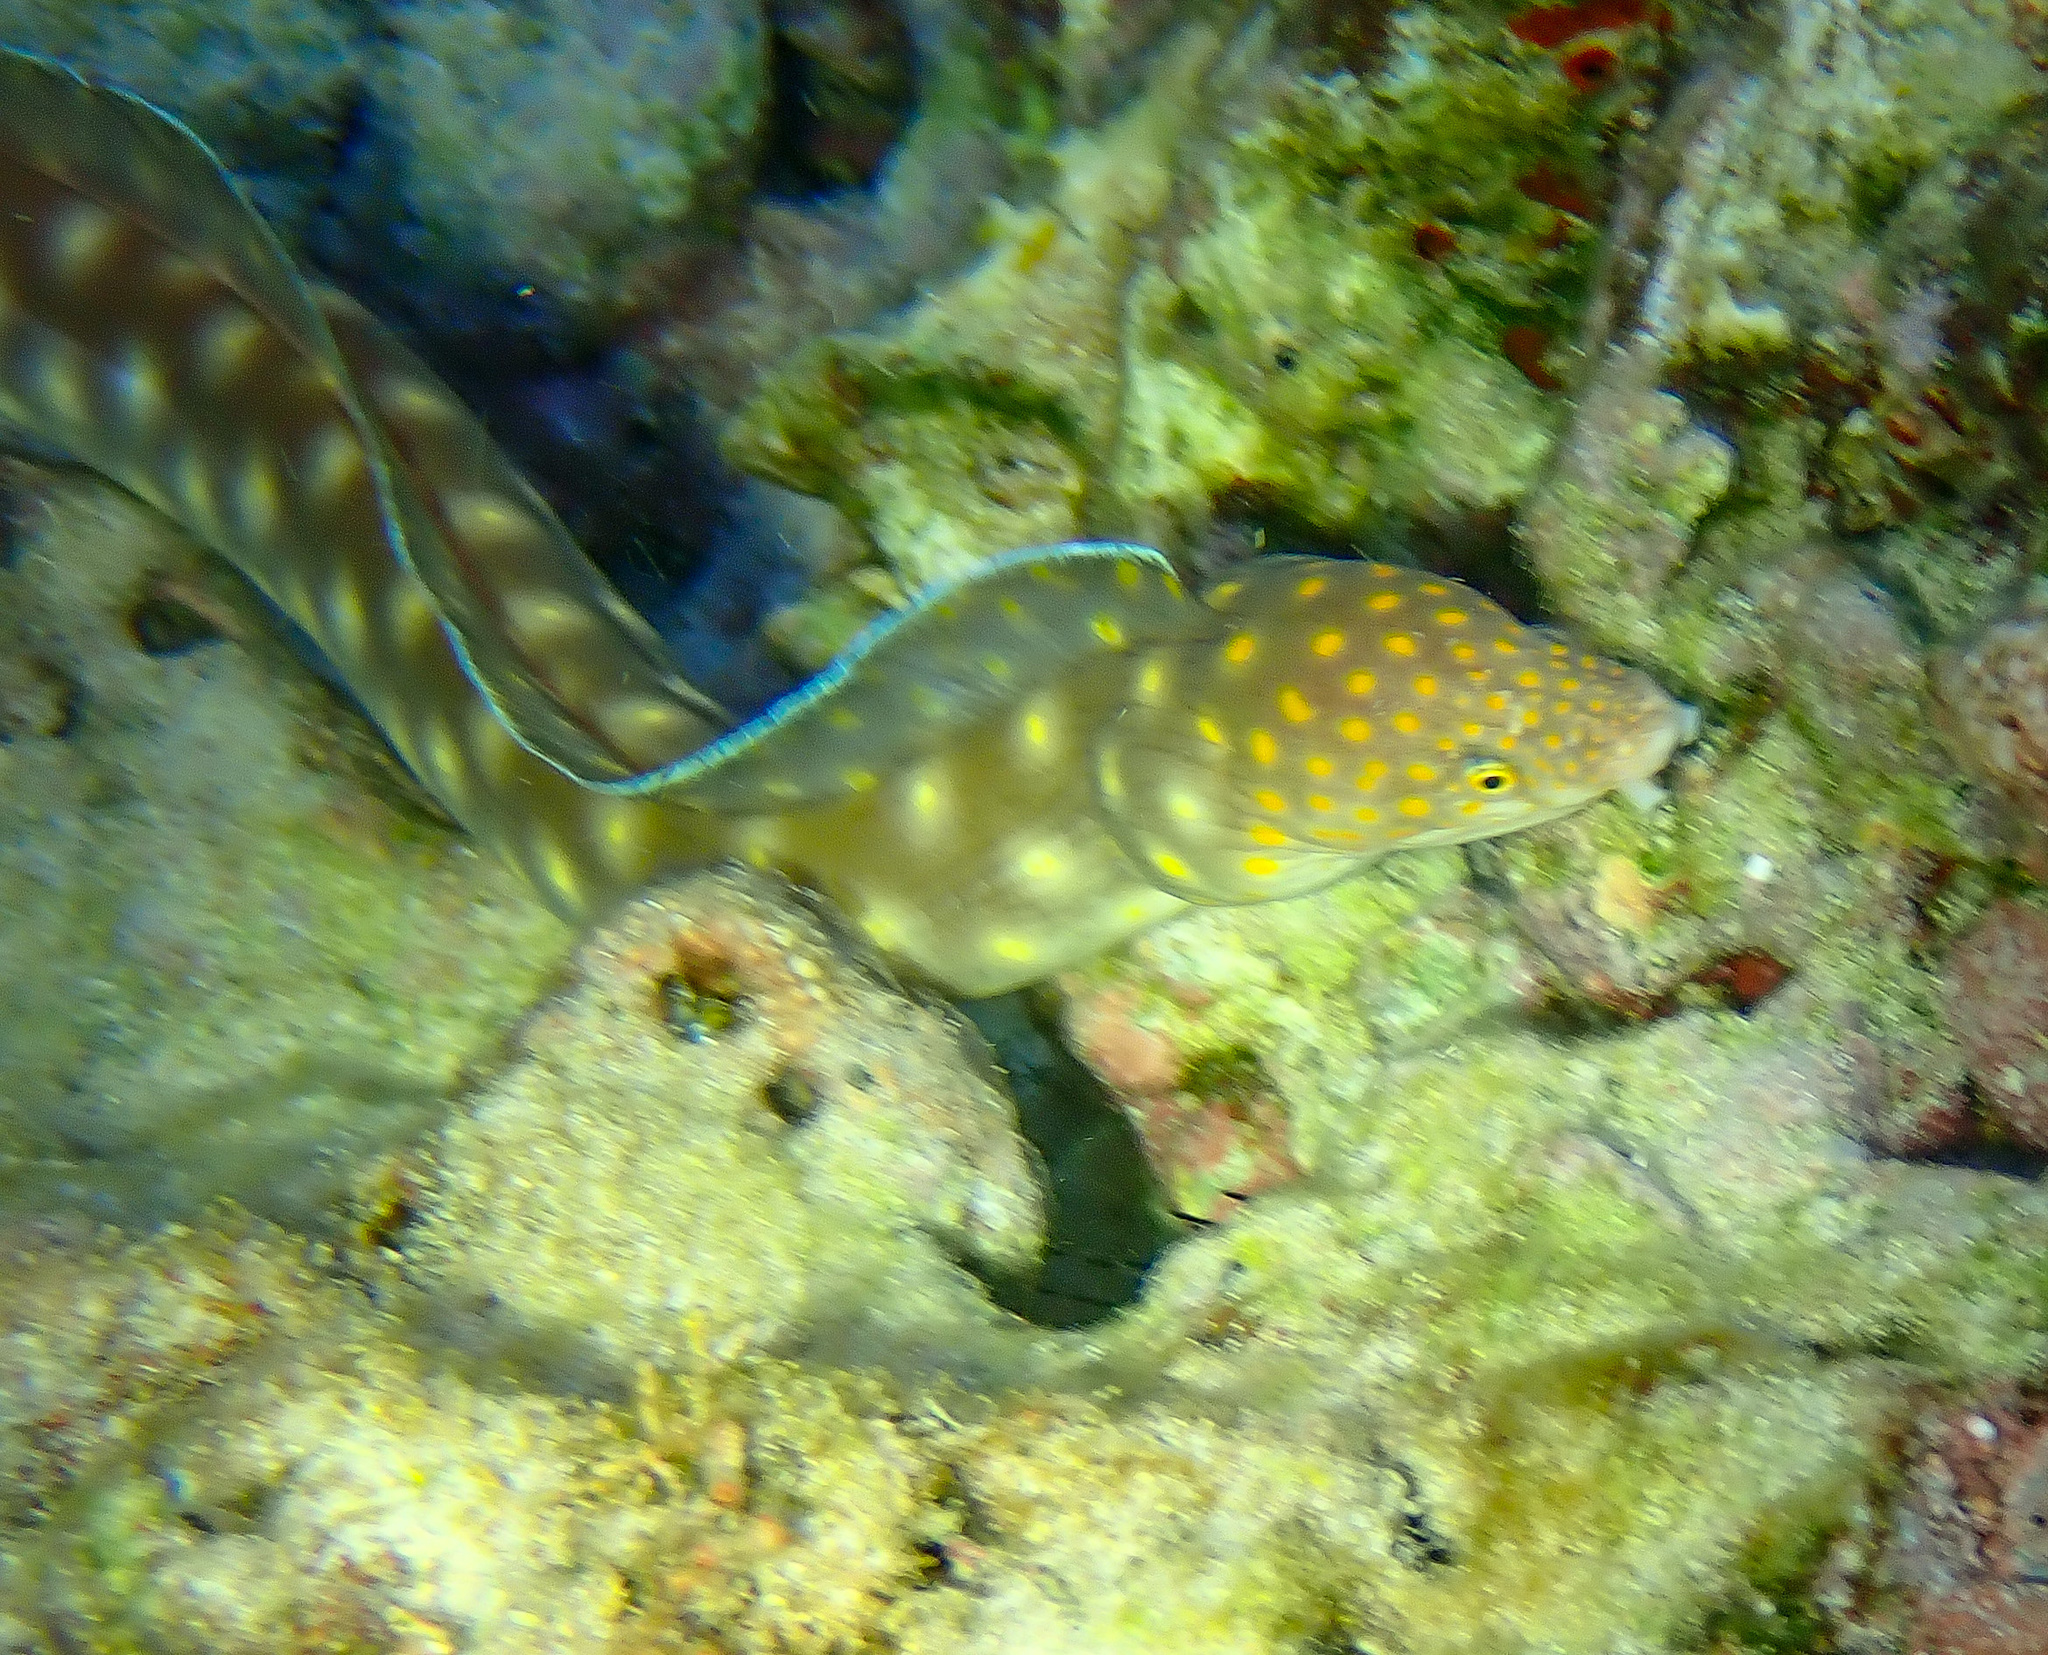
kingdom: Animalia
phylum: Chordata
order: Anguilliformes
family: Ophichthidae
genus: Myrichthys
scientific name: Myrichthys breviceps
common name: Sharptail eel
